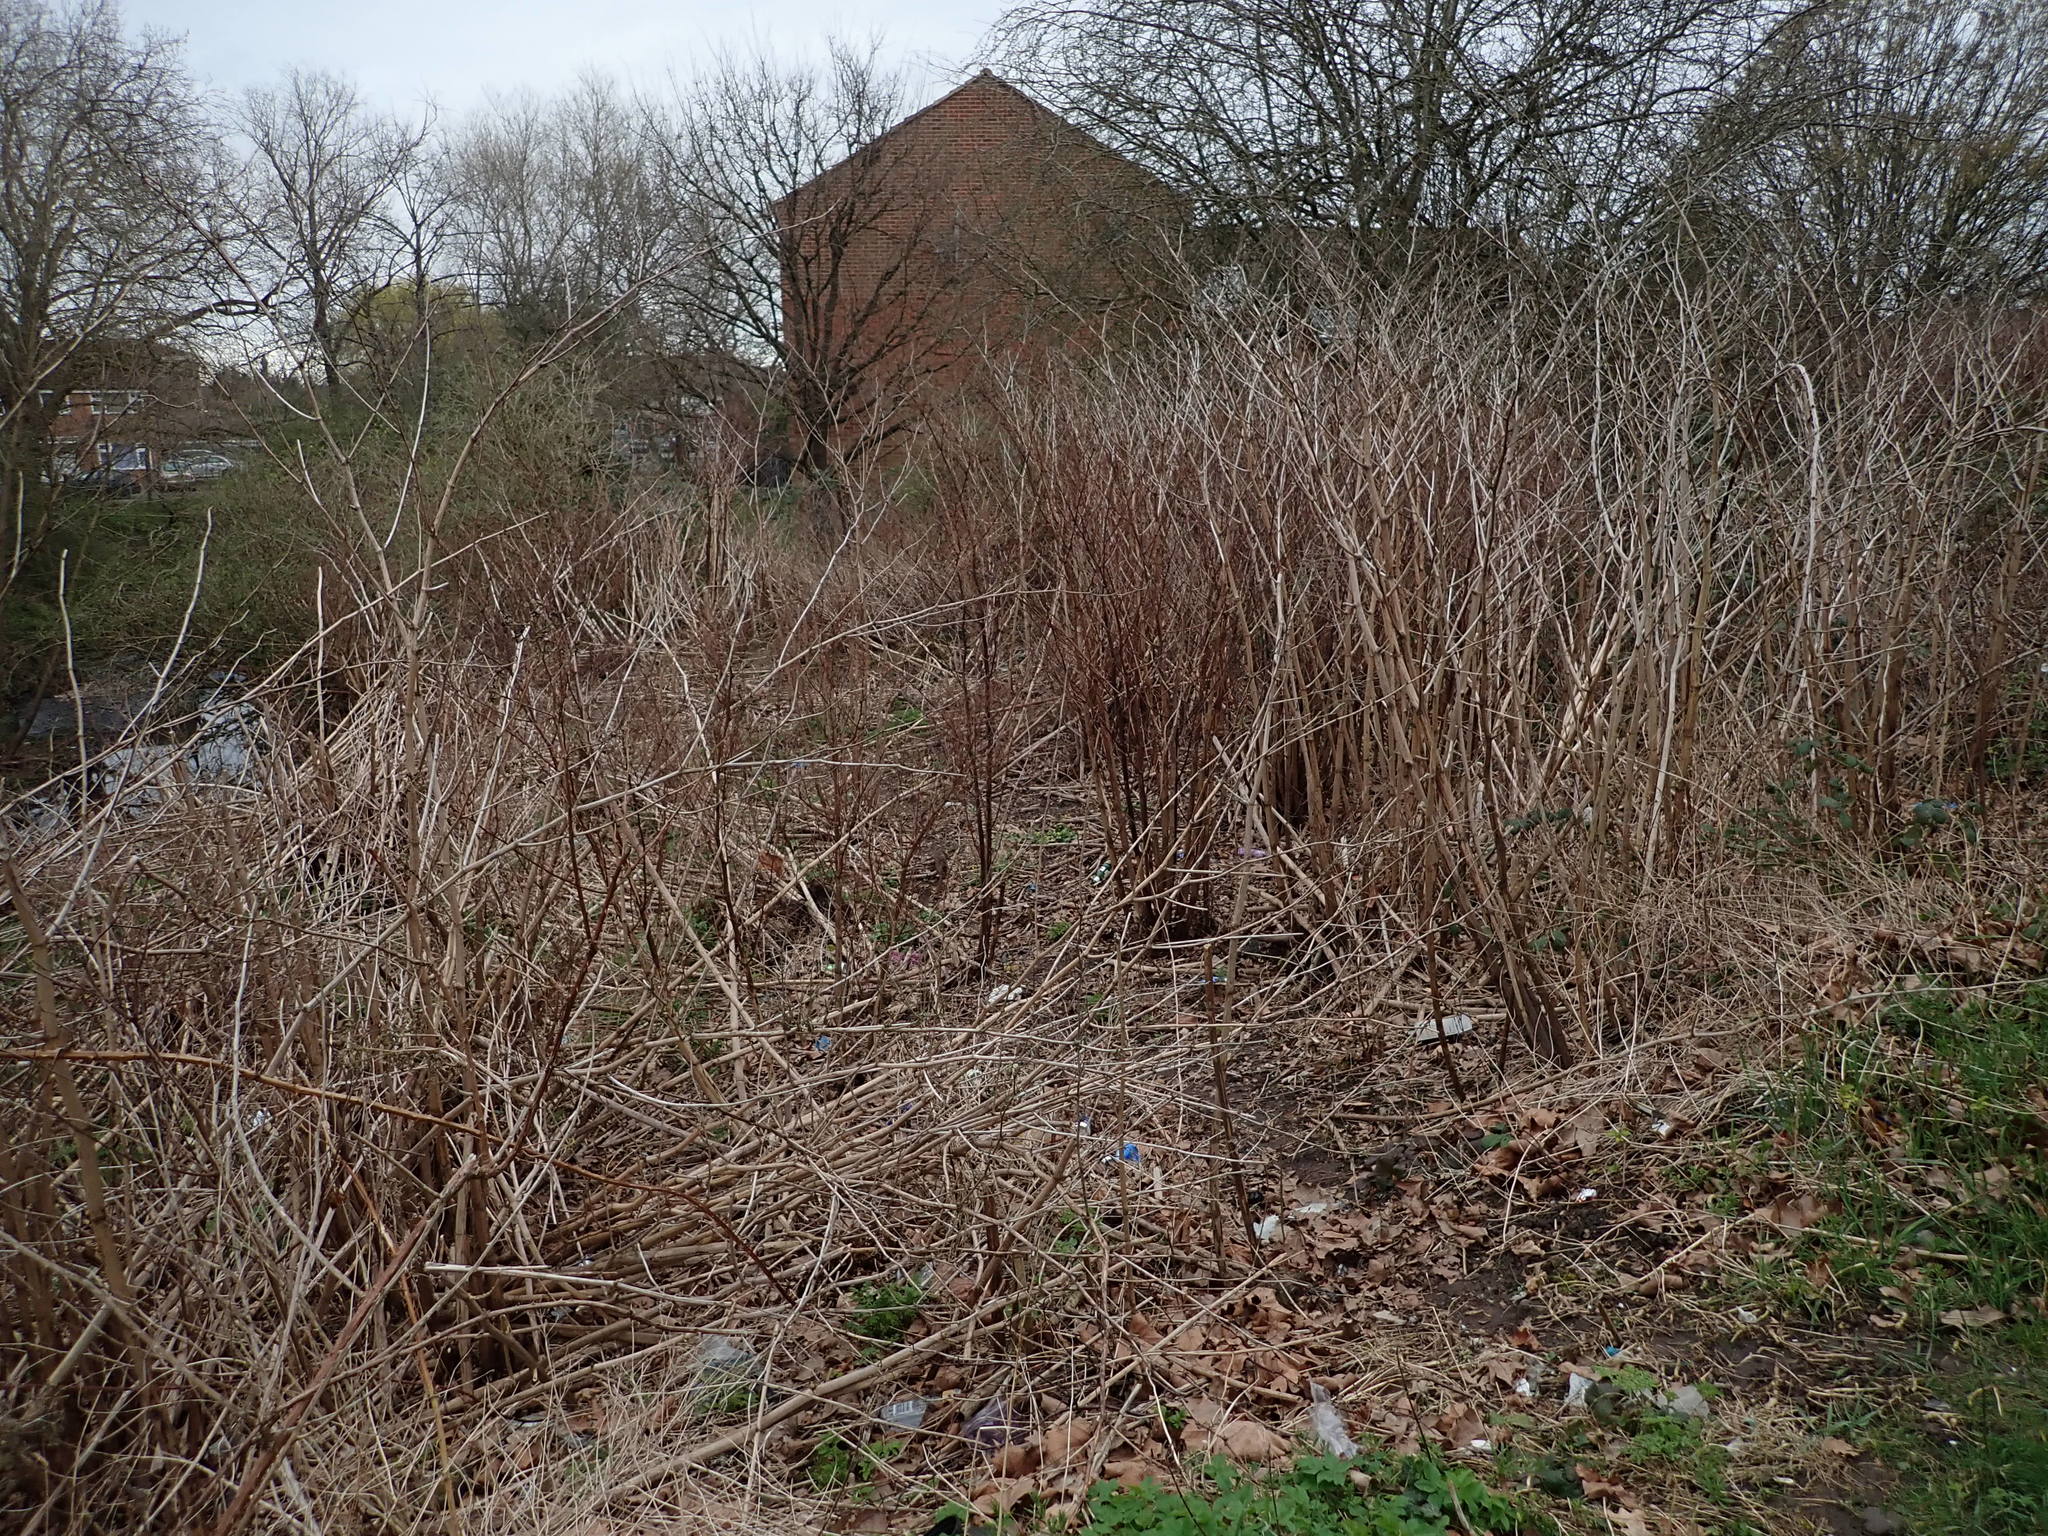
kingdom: Plantae
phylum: Tracheophyta
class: Magnoliopsida
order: Caryophyllales
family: Polygonaceae
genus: Reynoutria
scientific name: Reynoutria japonica
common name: Japanese knotweed
